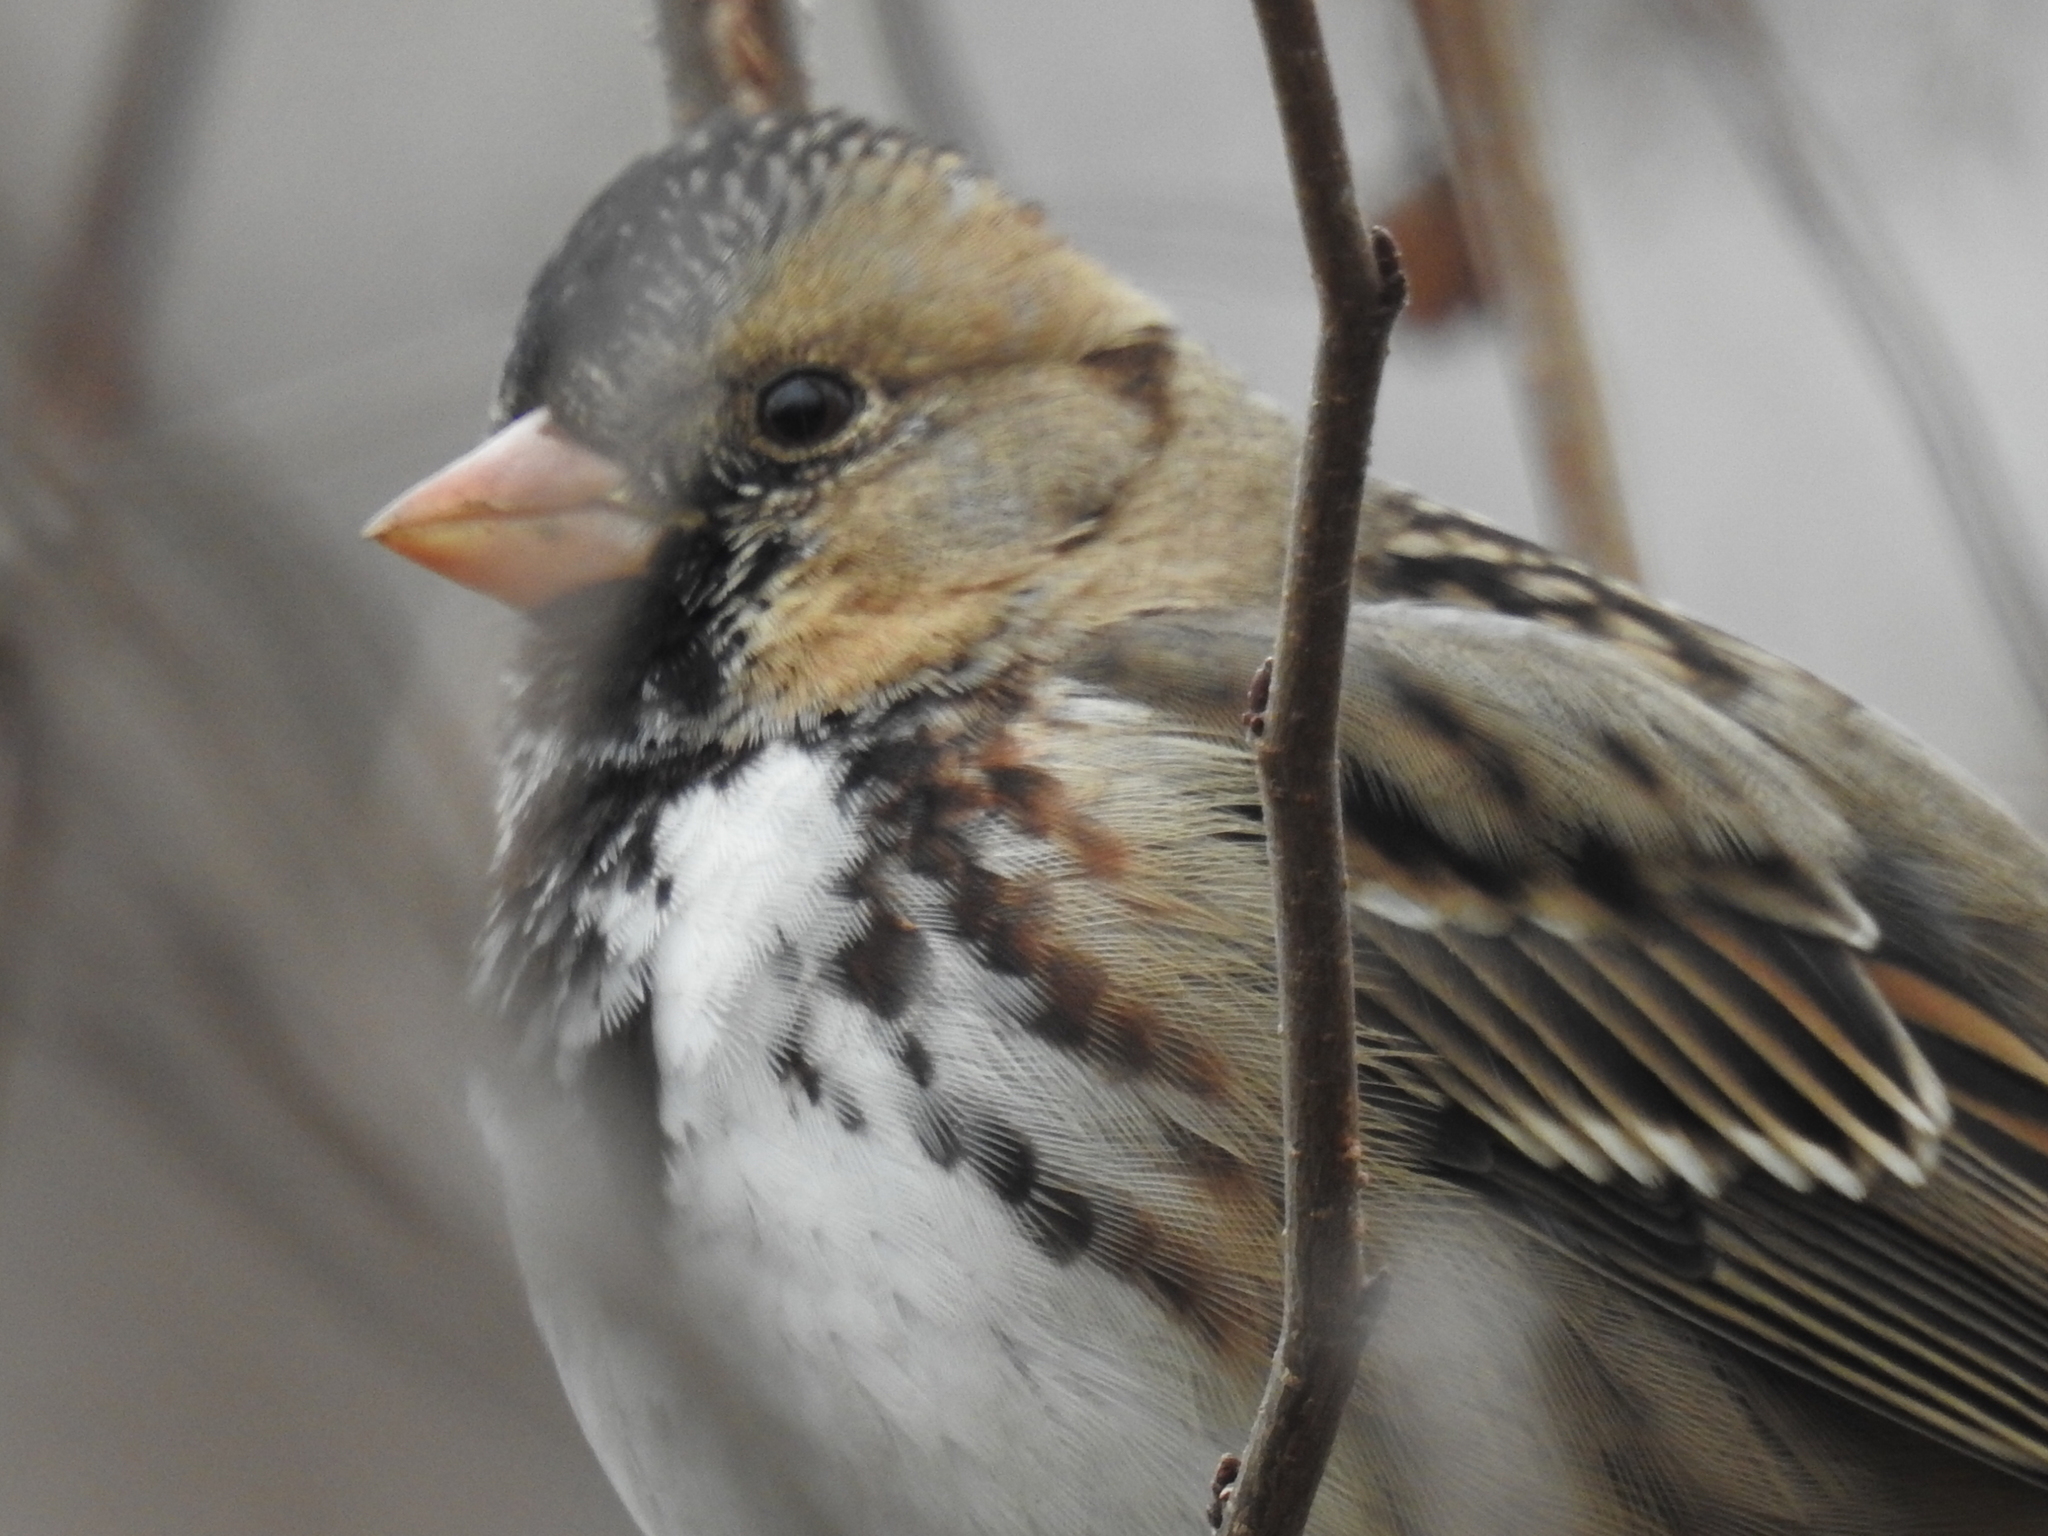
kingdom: Animalia
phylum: Chordata
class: Aves
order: Passeriformes
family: Passerellidae
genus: Zonotrichia
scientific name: Zonotrichia querula
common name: Harris's sparrow
